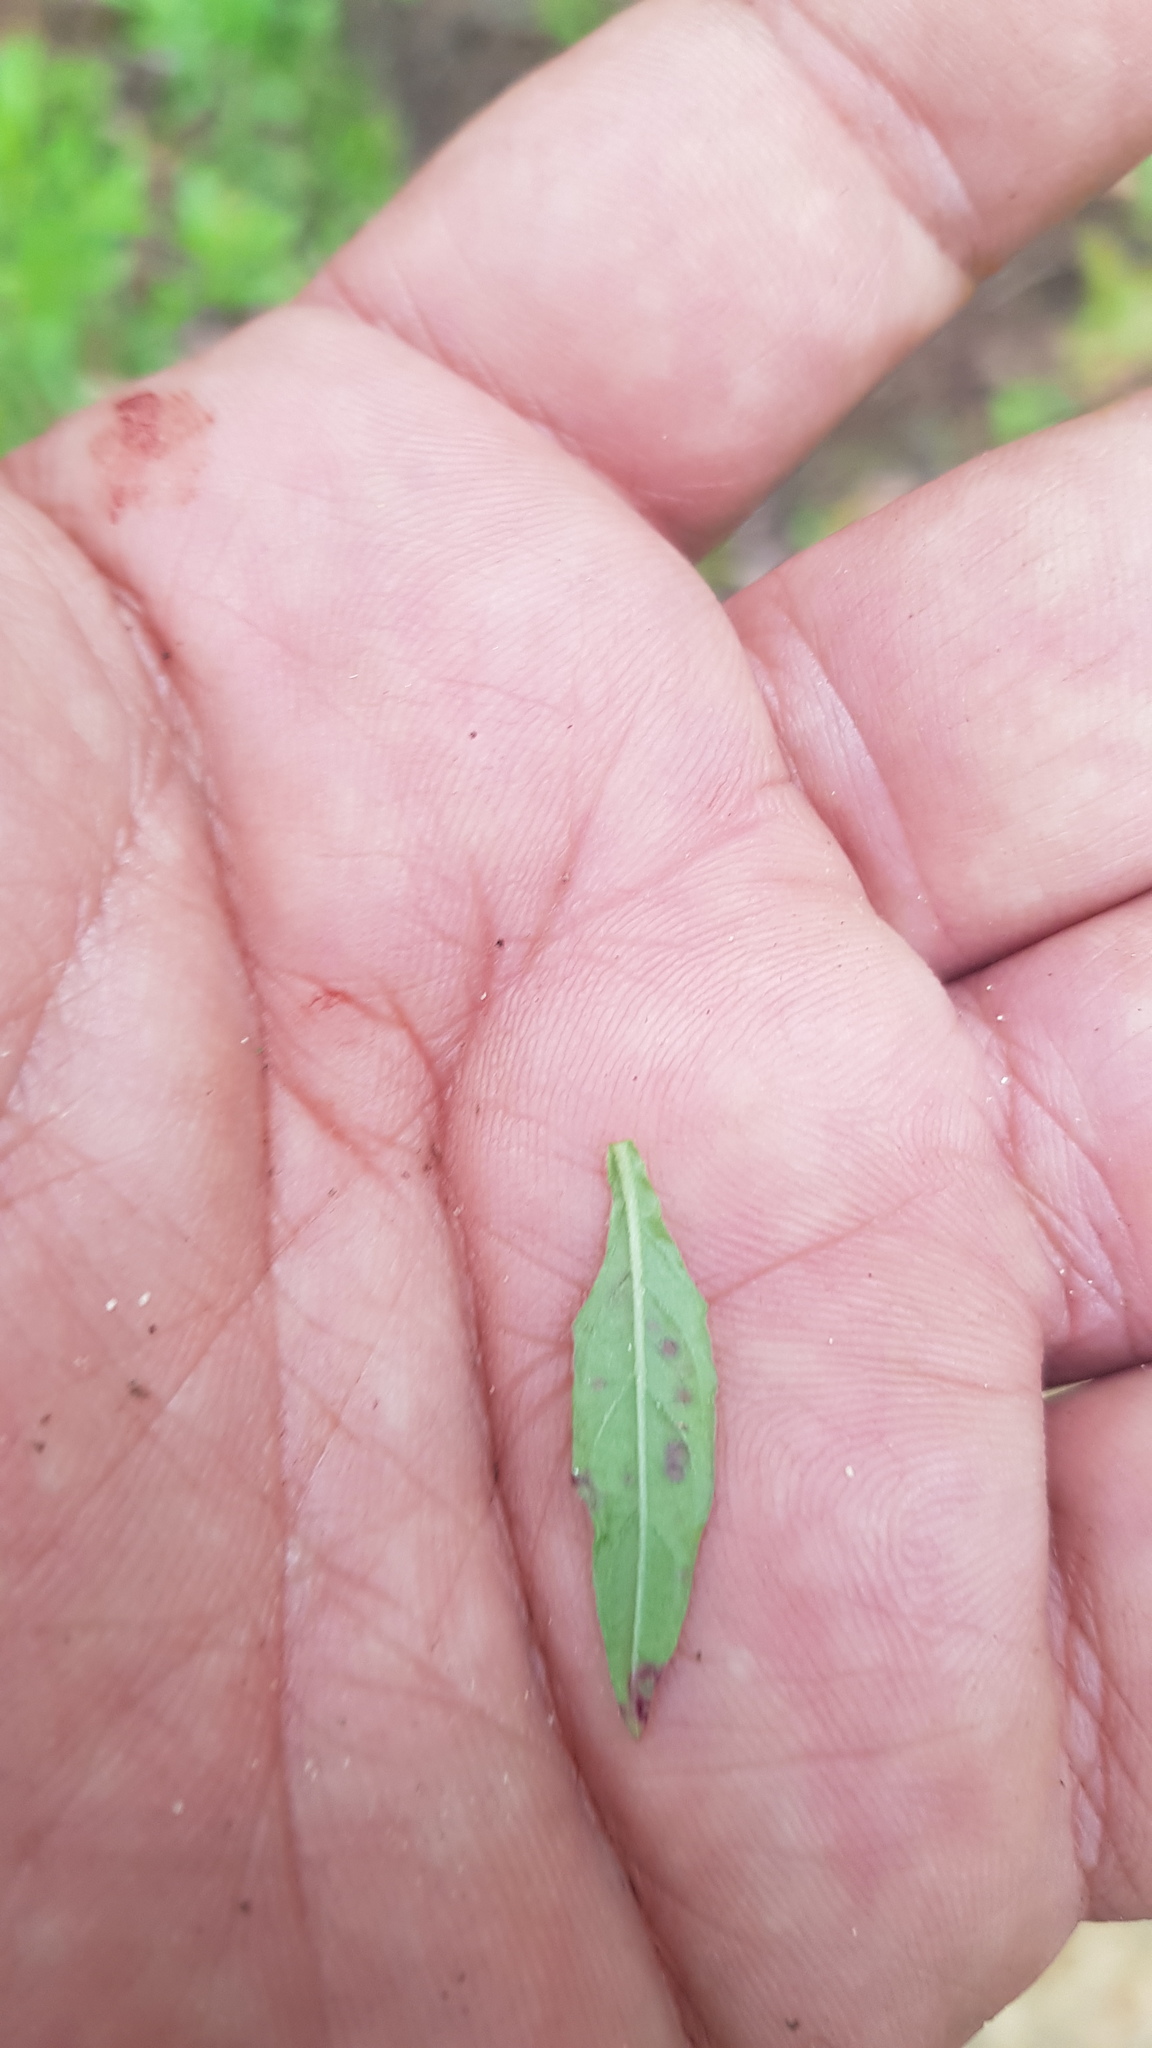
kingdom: Plantae
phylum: Tracheophyta
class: Magnoliopsida
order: Myrtales
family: Onagraceae
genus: Oenothera
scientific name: Oenothera rosea
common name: Rosy evening-primrose
